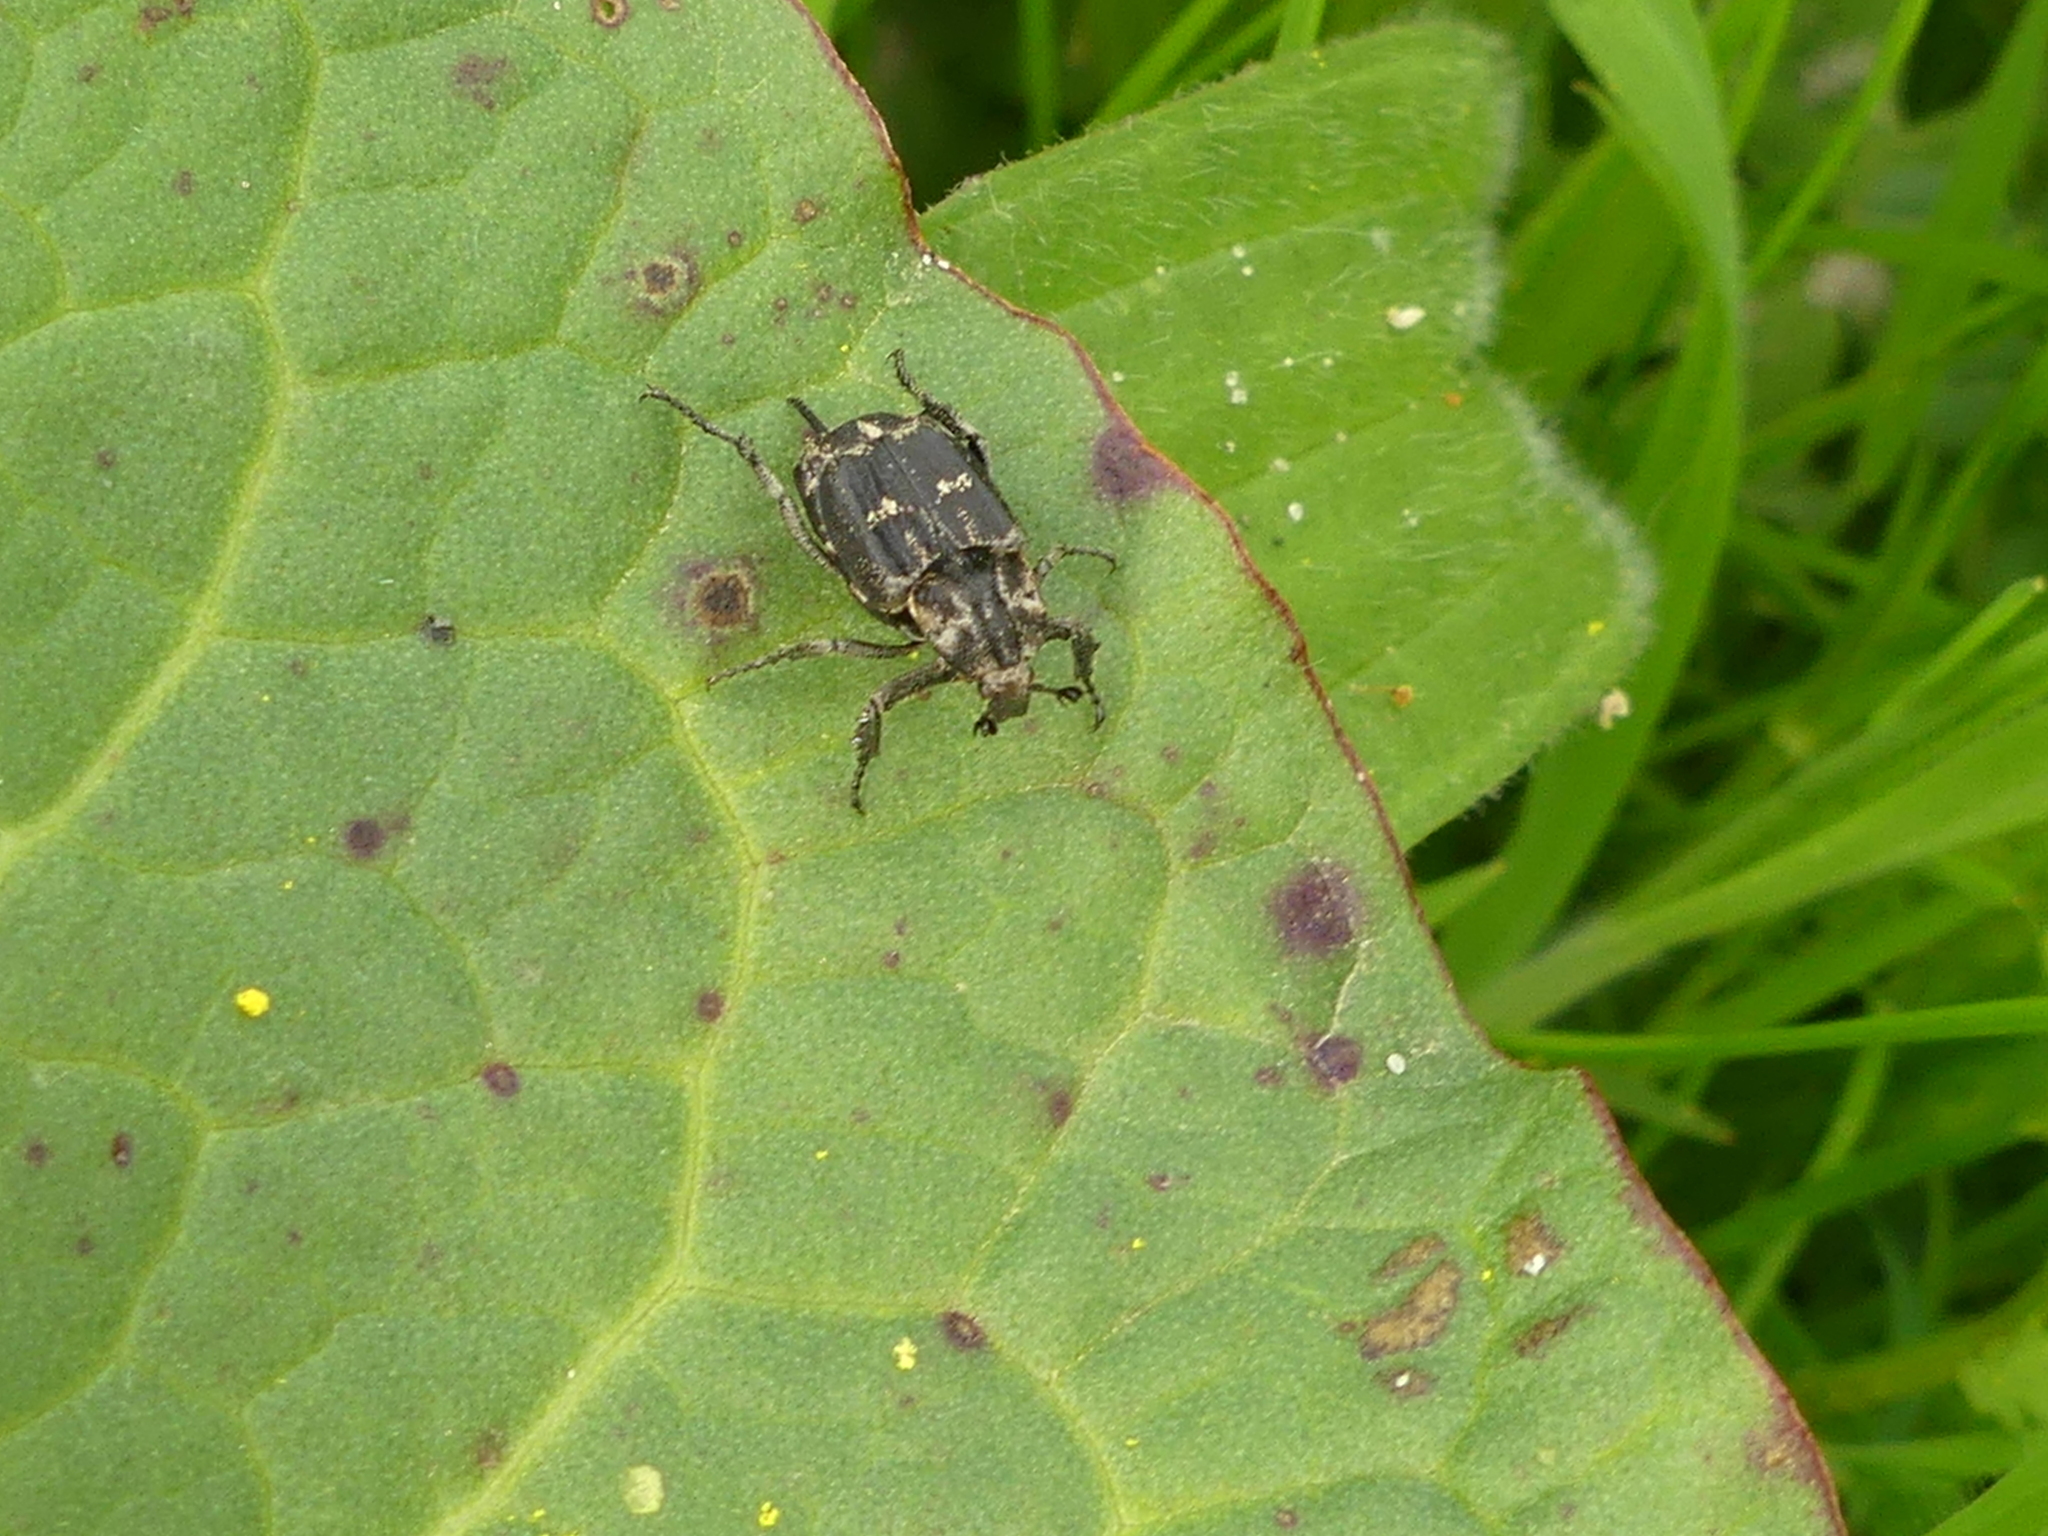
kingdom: Animalia
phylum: Arthropoda
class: Insecta
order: Coleoptera
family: Scarabaeidae
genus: Valgus
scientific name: Valgus hemipterus
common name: Bug flower chafer
